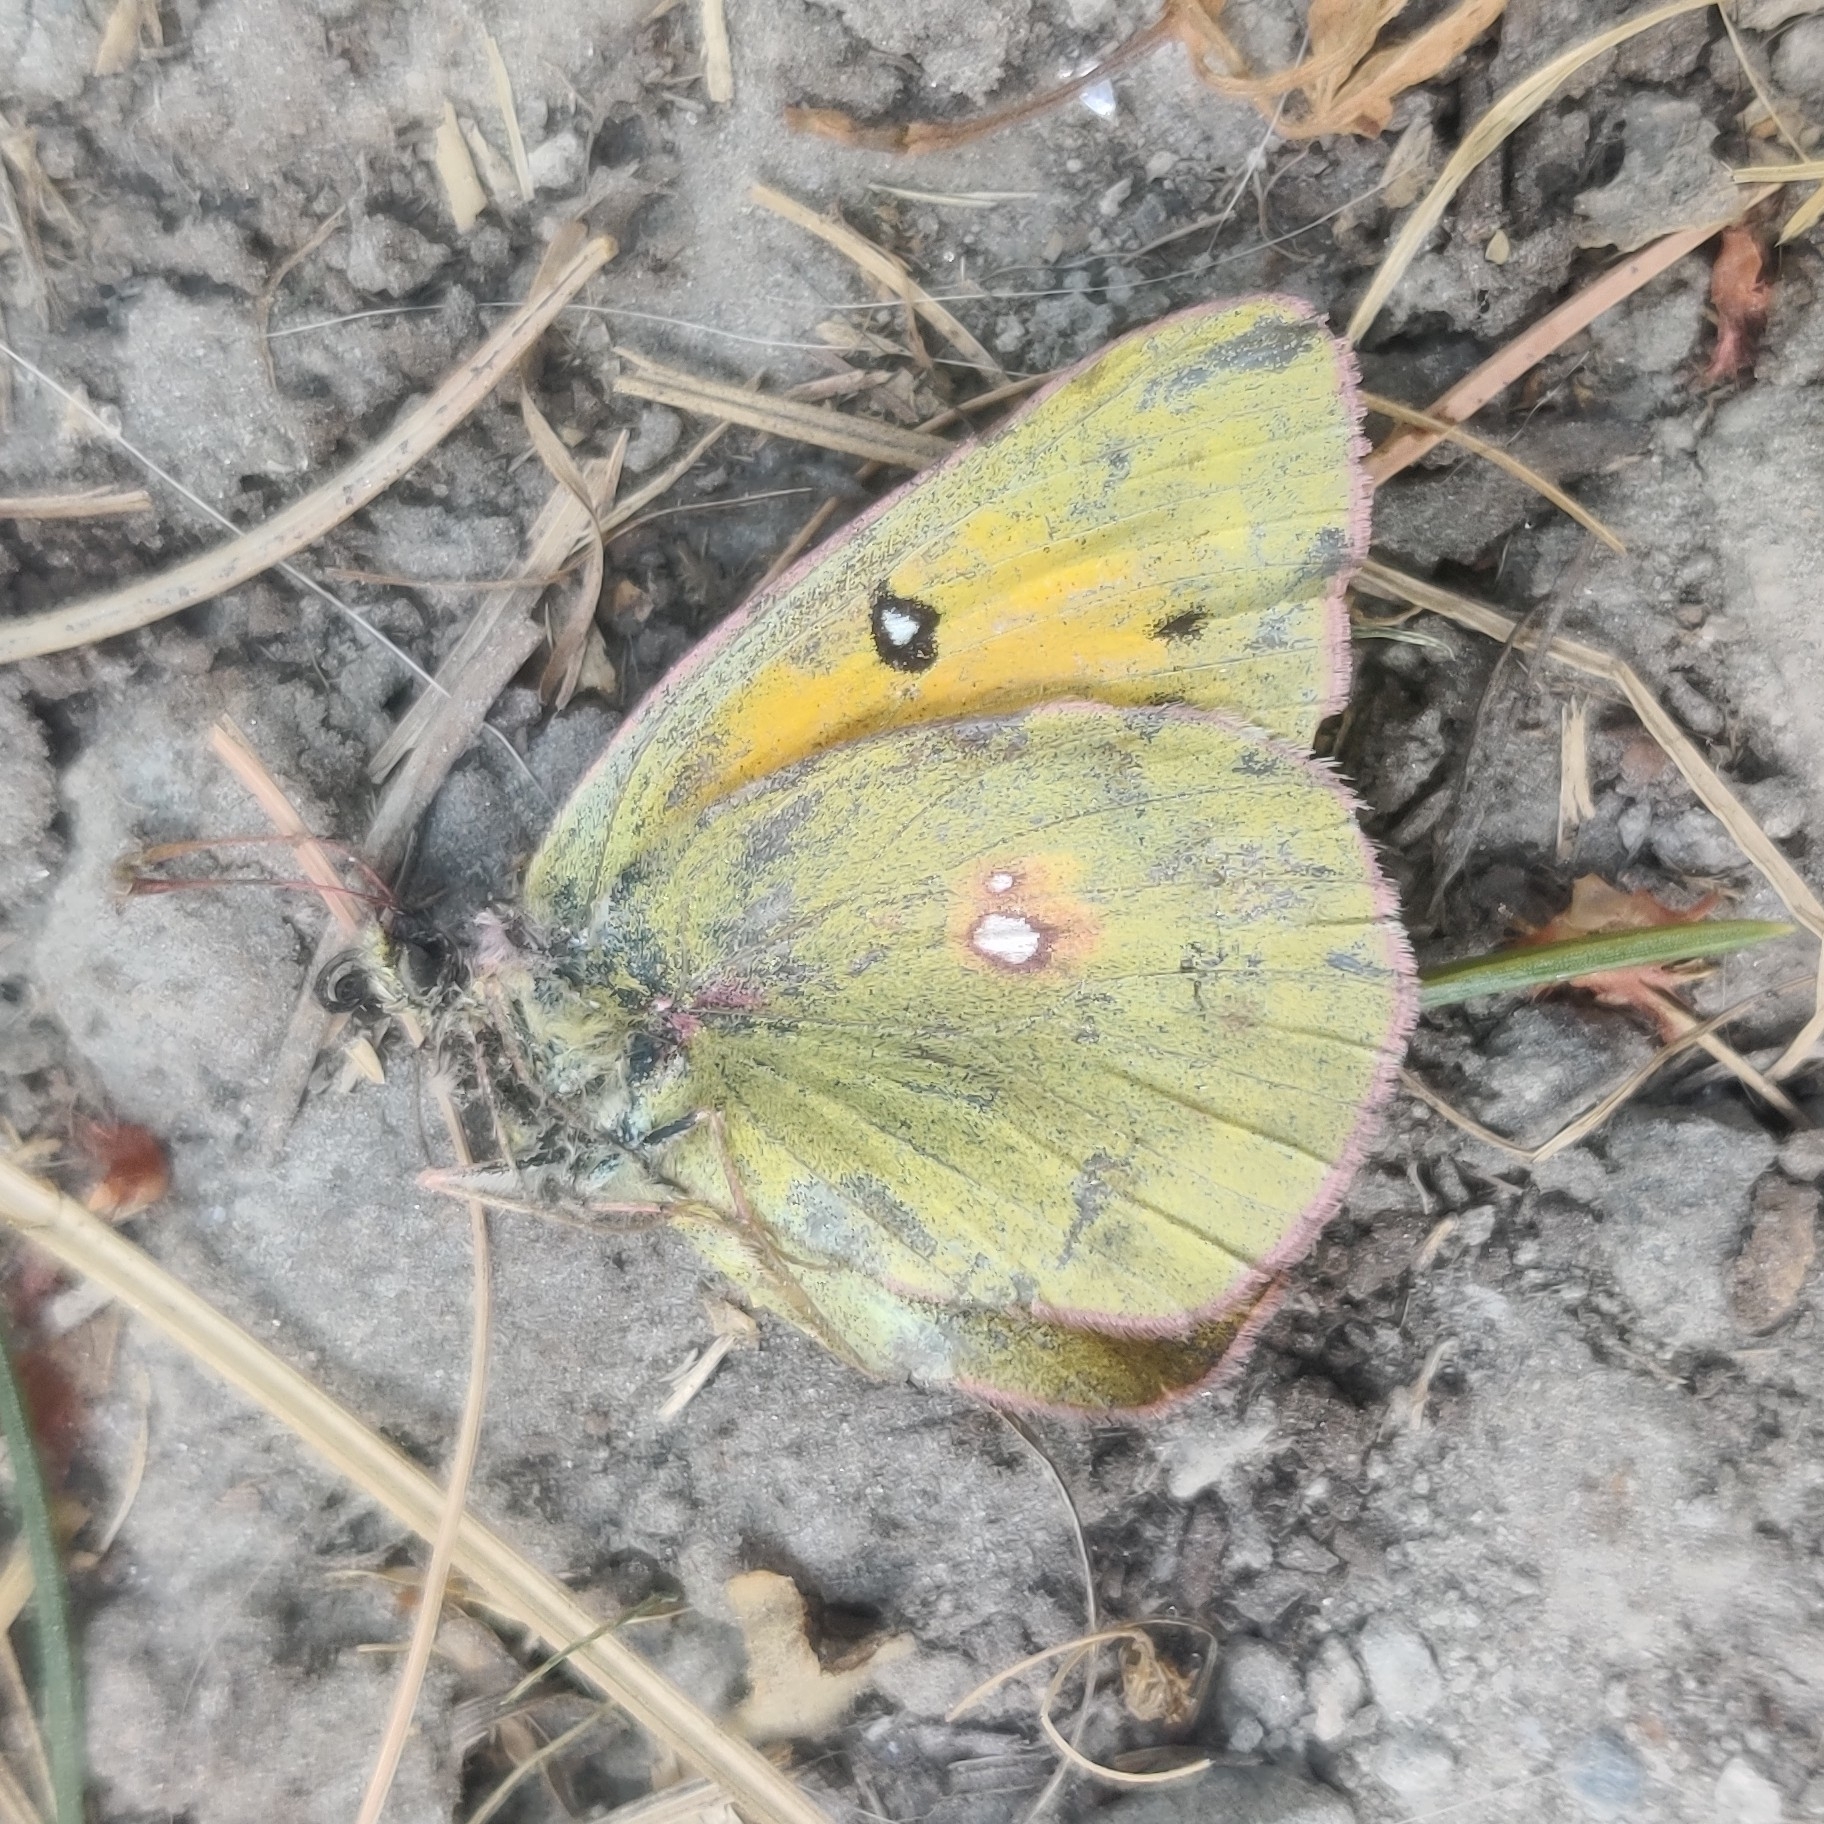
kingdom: Animalia
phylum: Arthropoda
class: Insecta
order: Lepidoptera
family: Pieridae
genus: Colias
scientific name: Colias fieldii
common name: Dark clouded yellow
